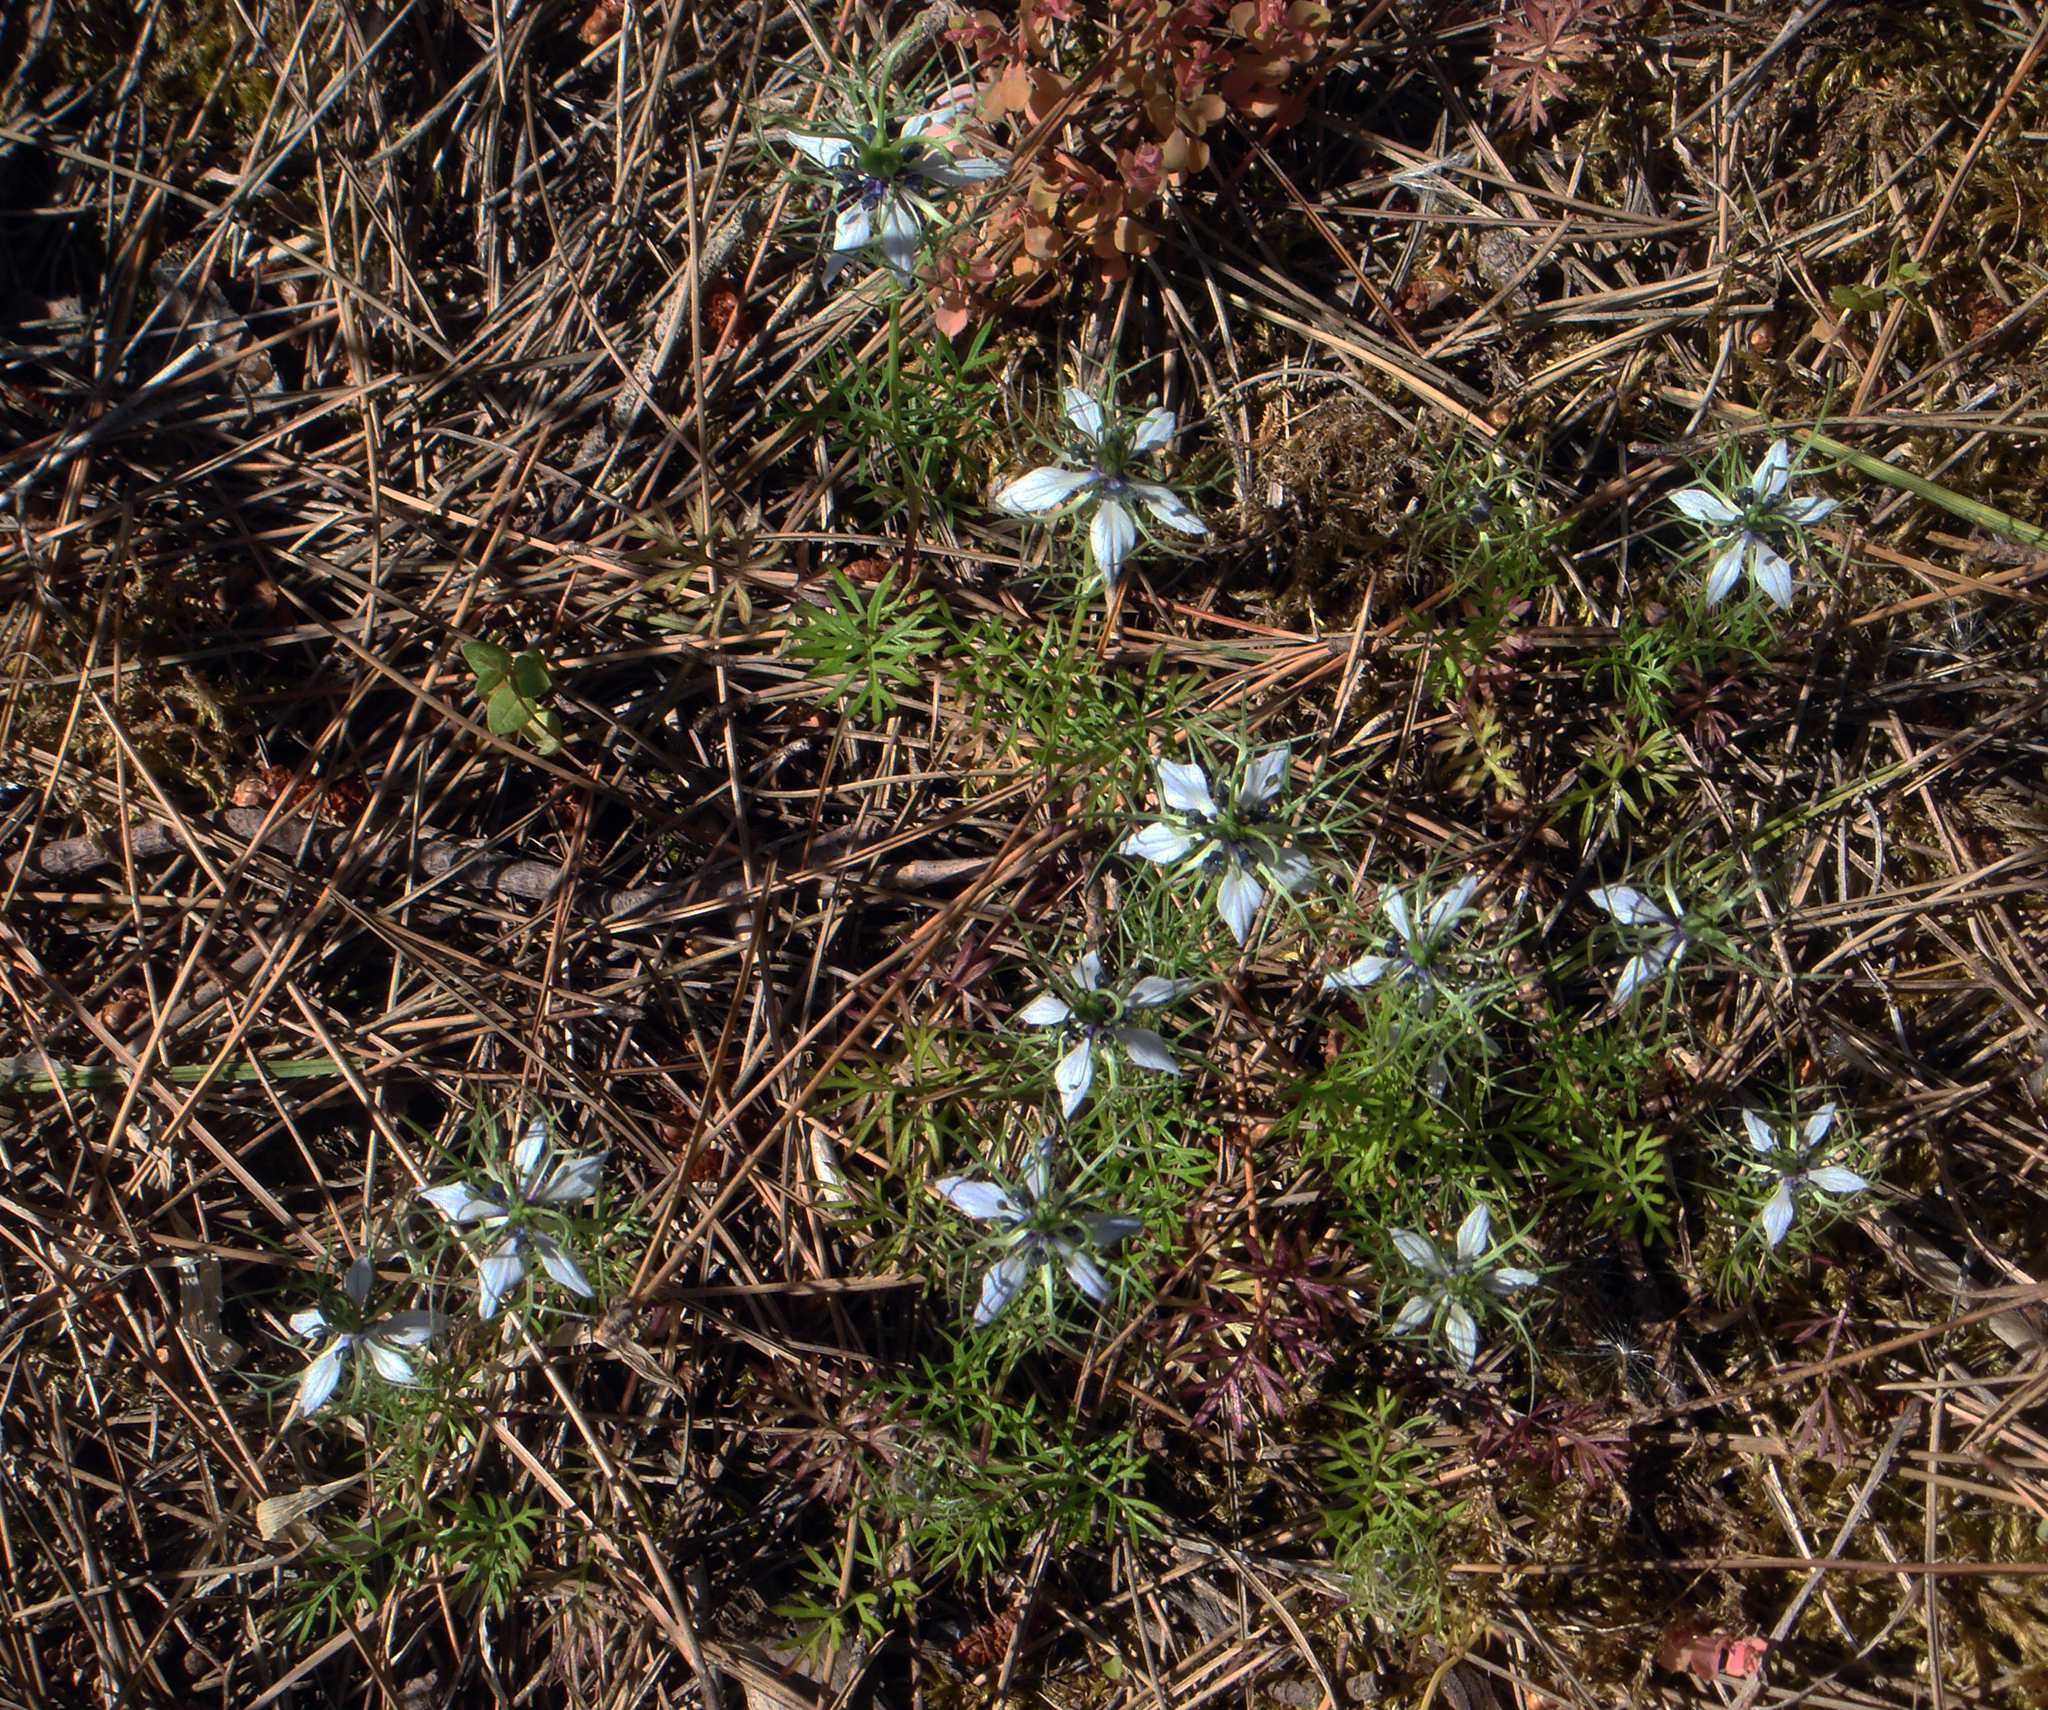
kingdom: Plantae
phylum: Tracheophyta
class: Magnoliopsida
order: Ranunculales
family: Ranunculaceae
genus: Nigella
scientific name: Nigella damascena
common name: Love-in-a-mist
